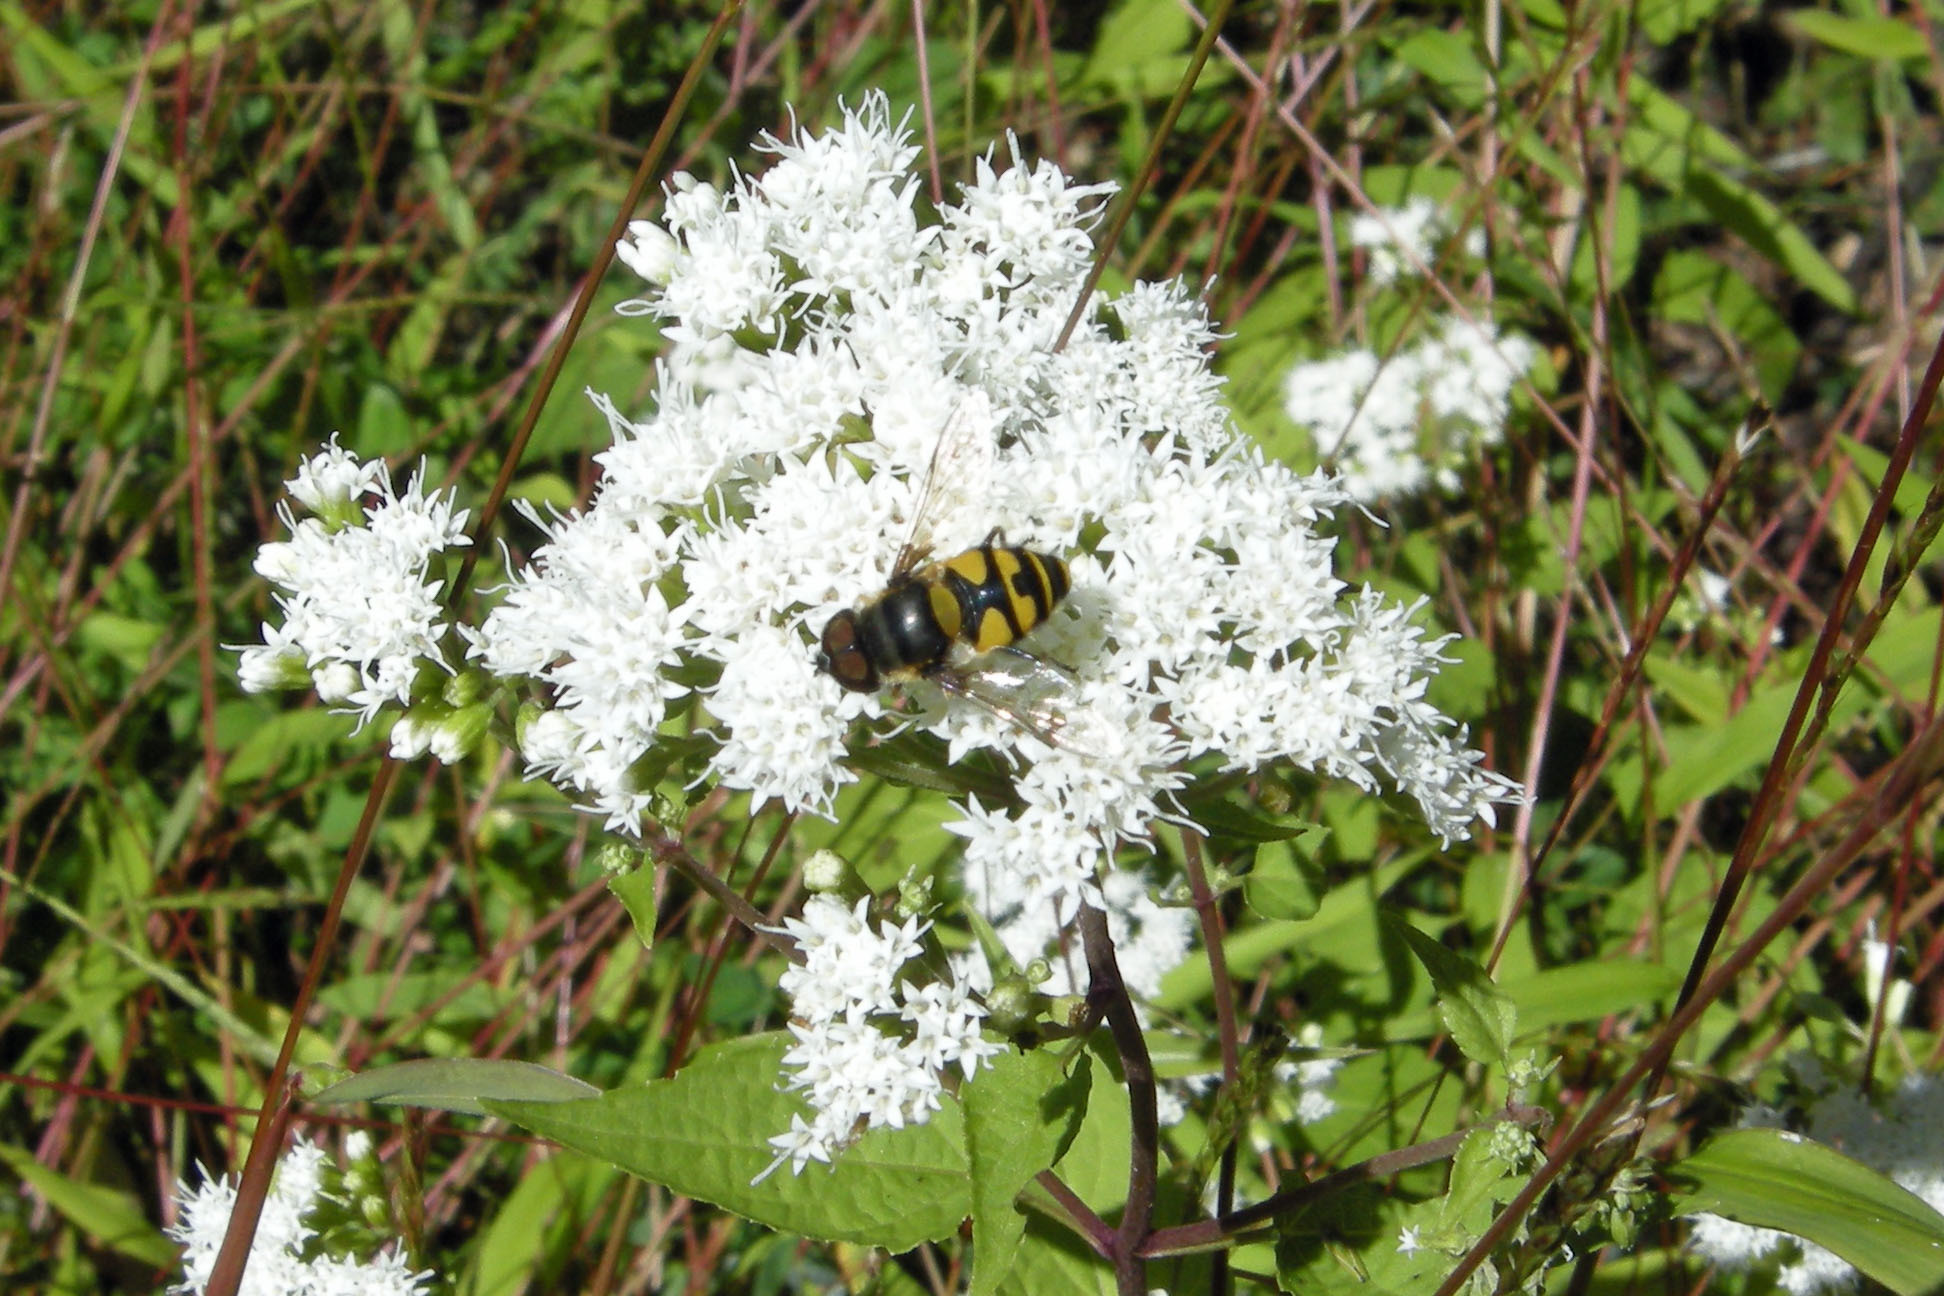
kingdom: Plantae
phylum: Tracheophyta
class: Magnoliopsida
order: Asterales
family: Asteraceae
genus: Ageratina
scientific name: Ageratina altissima
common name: White snakeroot
